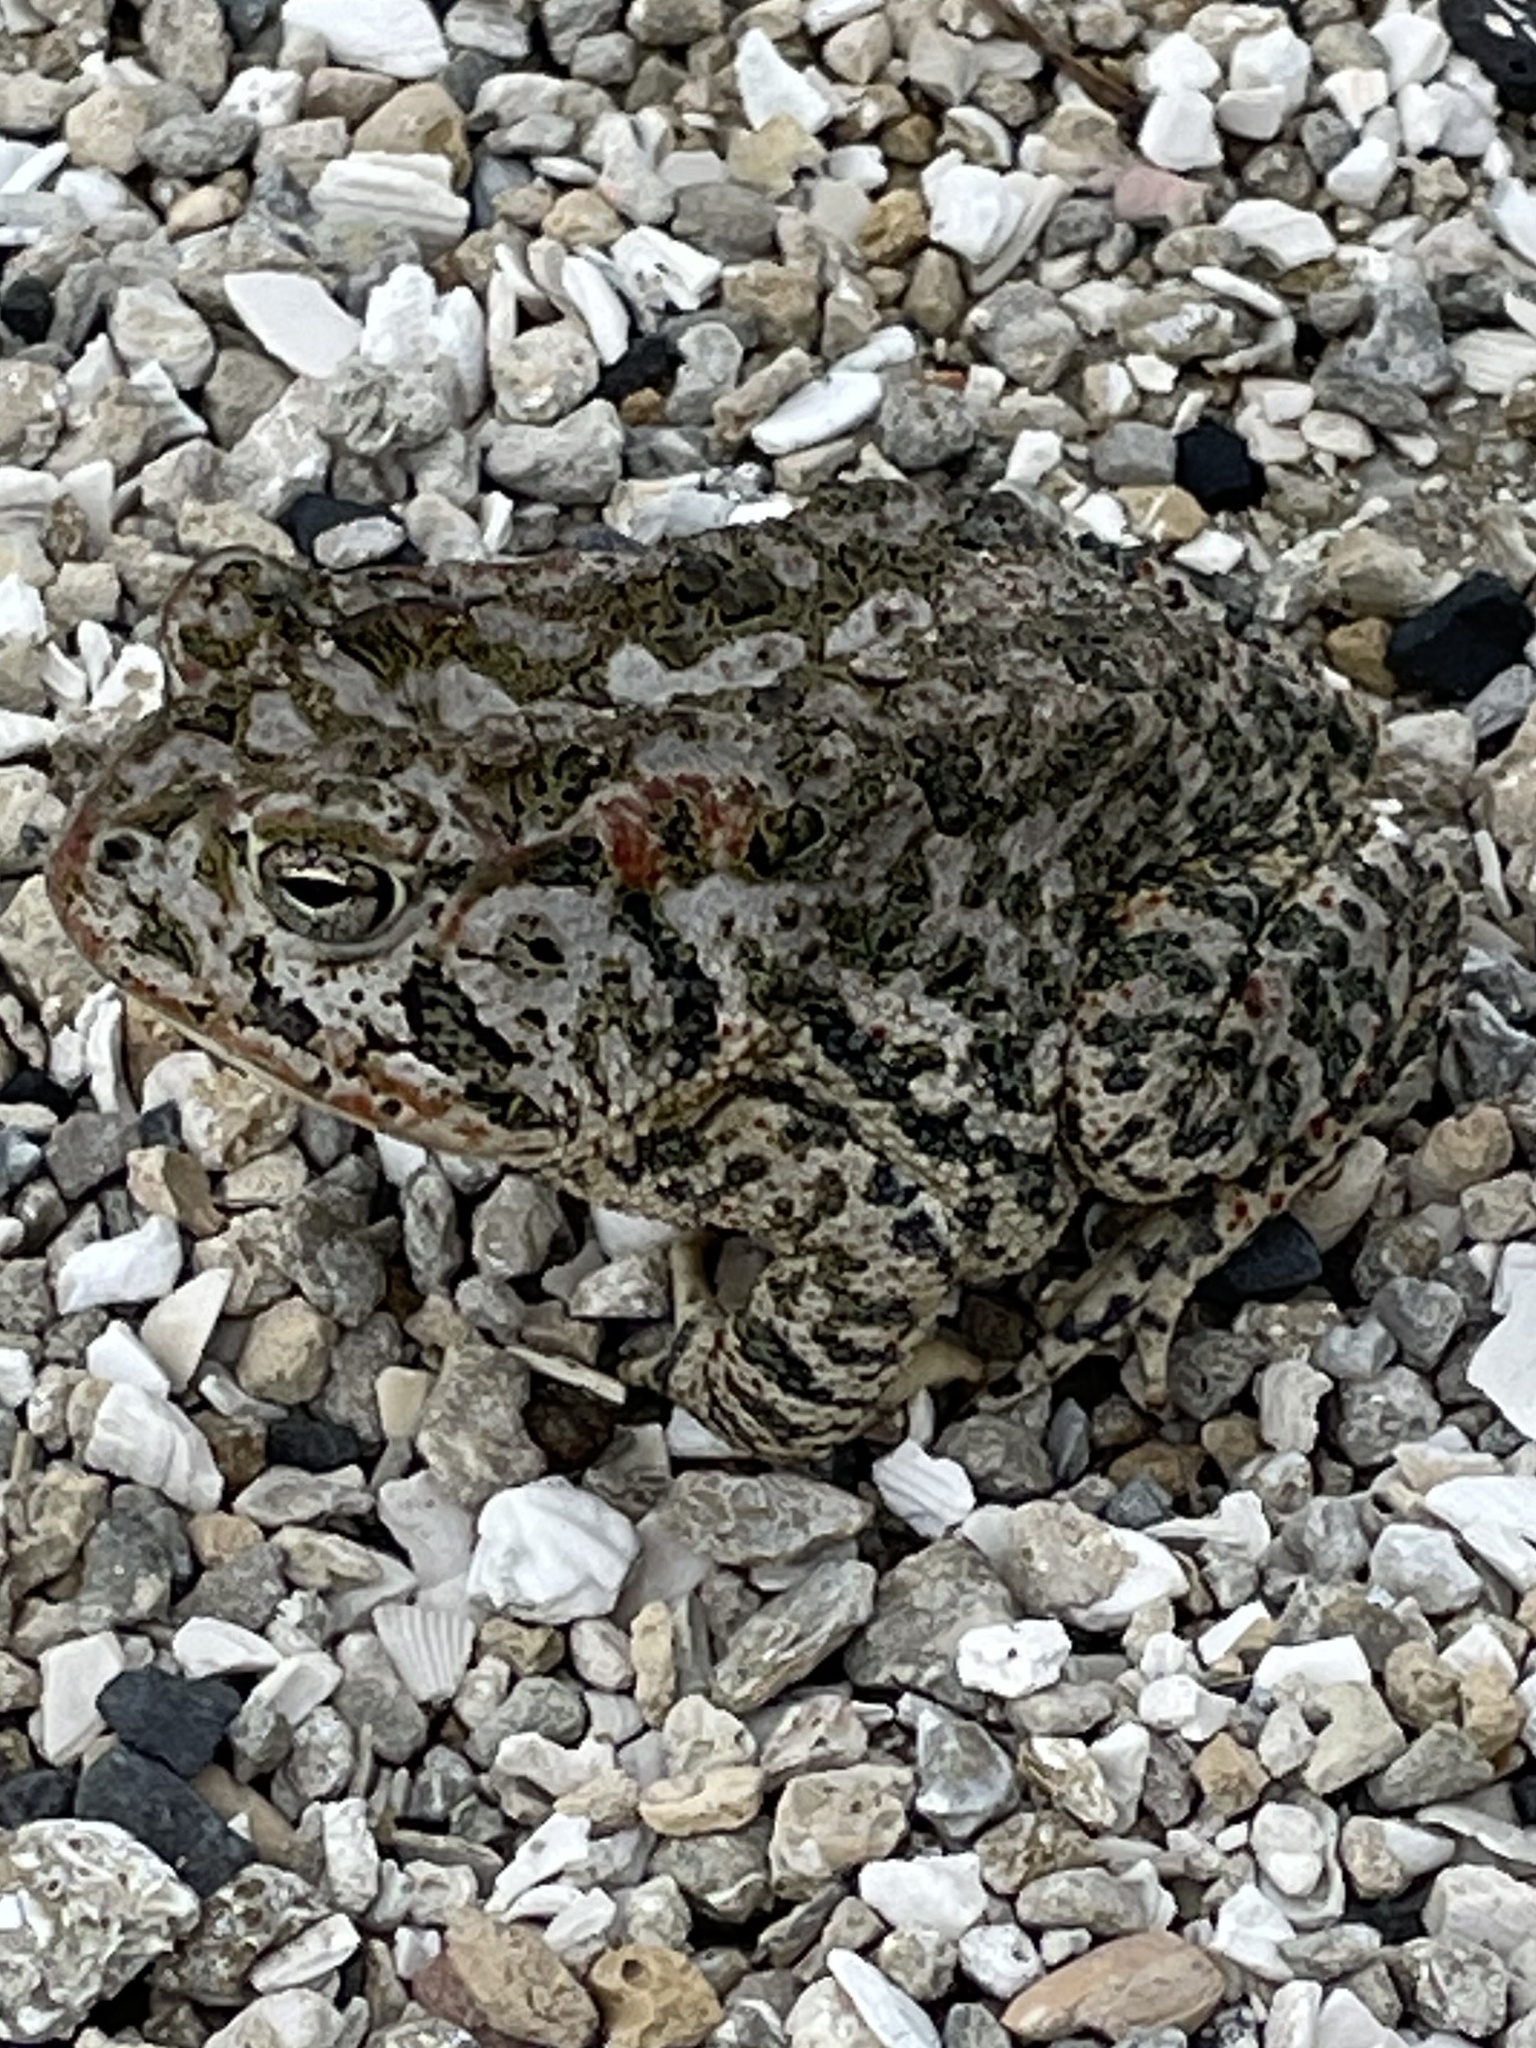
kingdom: Animalia
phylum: Chordata
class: Amphibia
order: Anura
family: Bufonidae
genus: Anaxyrus
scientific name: Anaxyrus terrestris
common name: Southern toad
